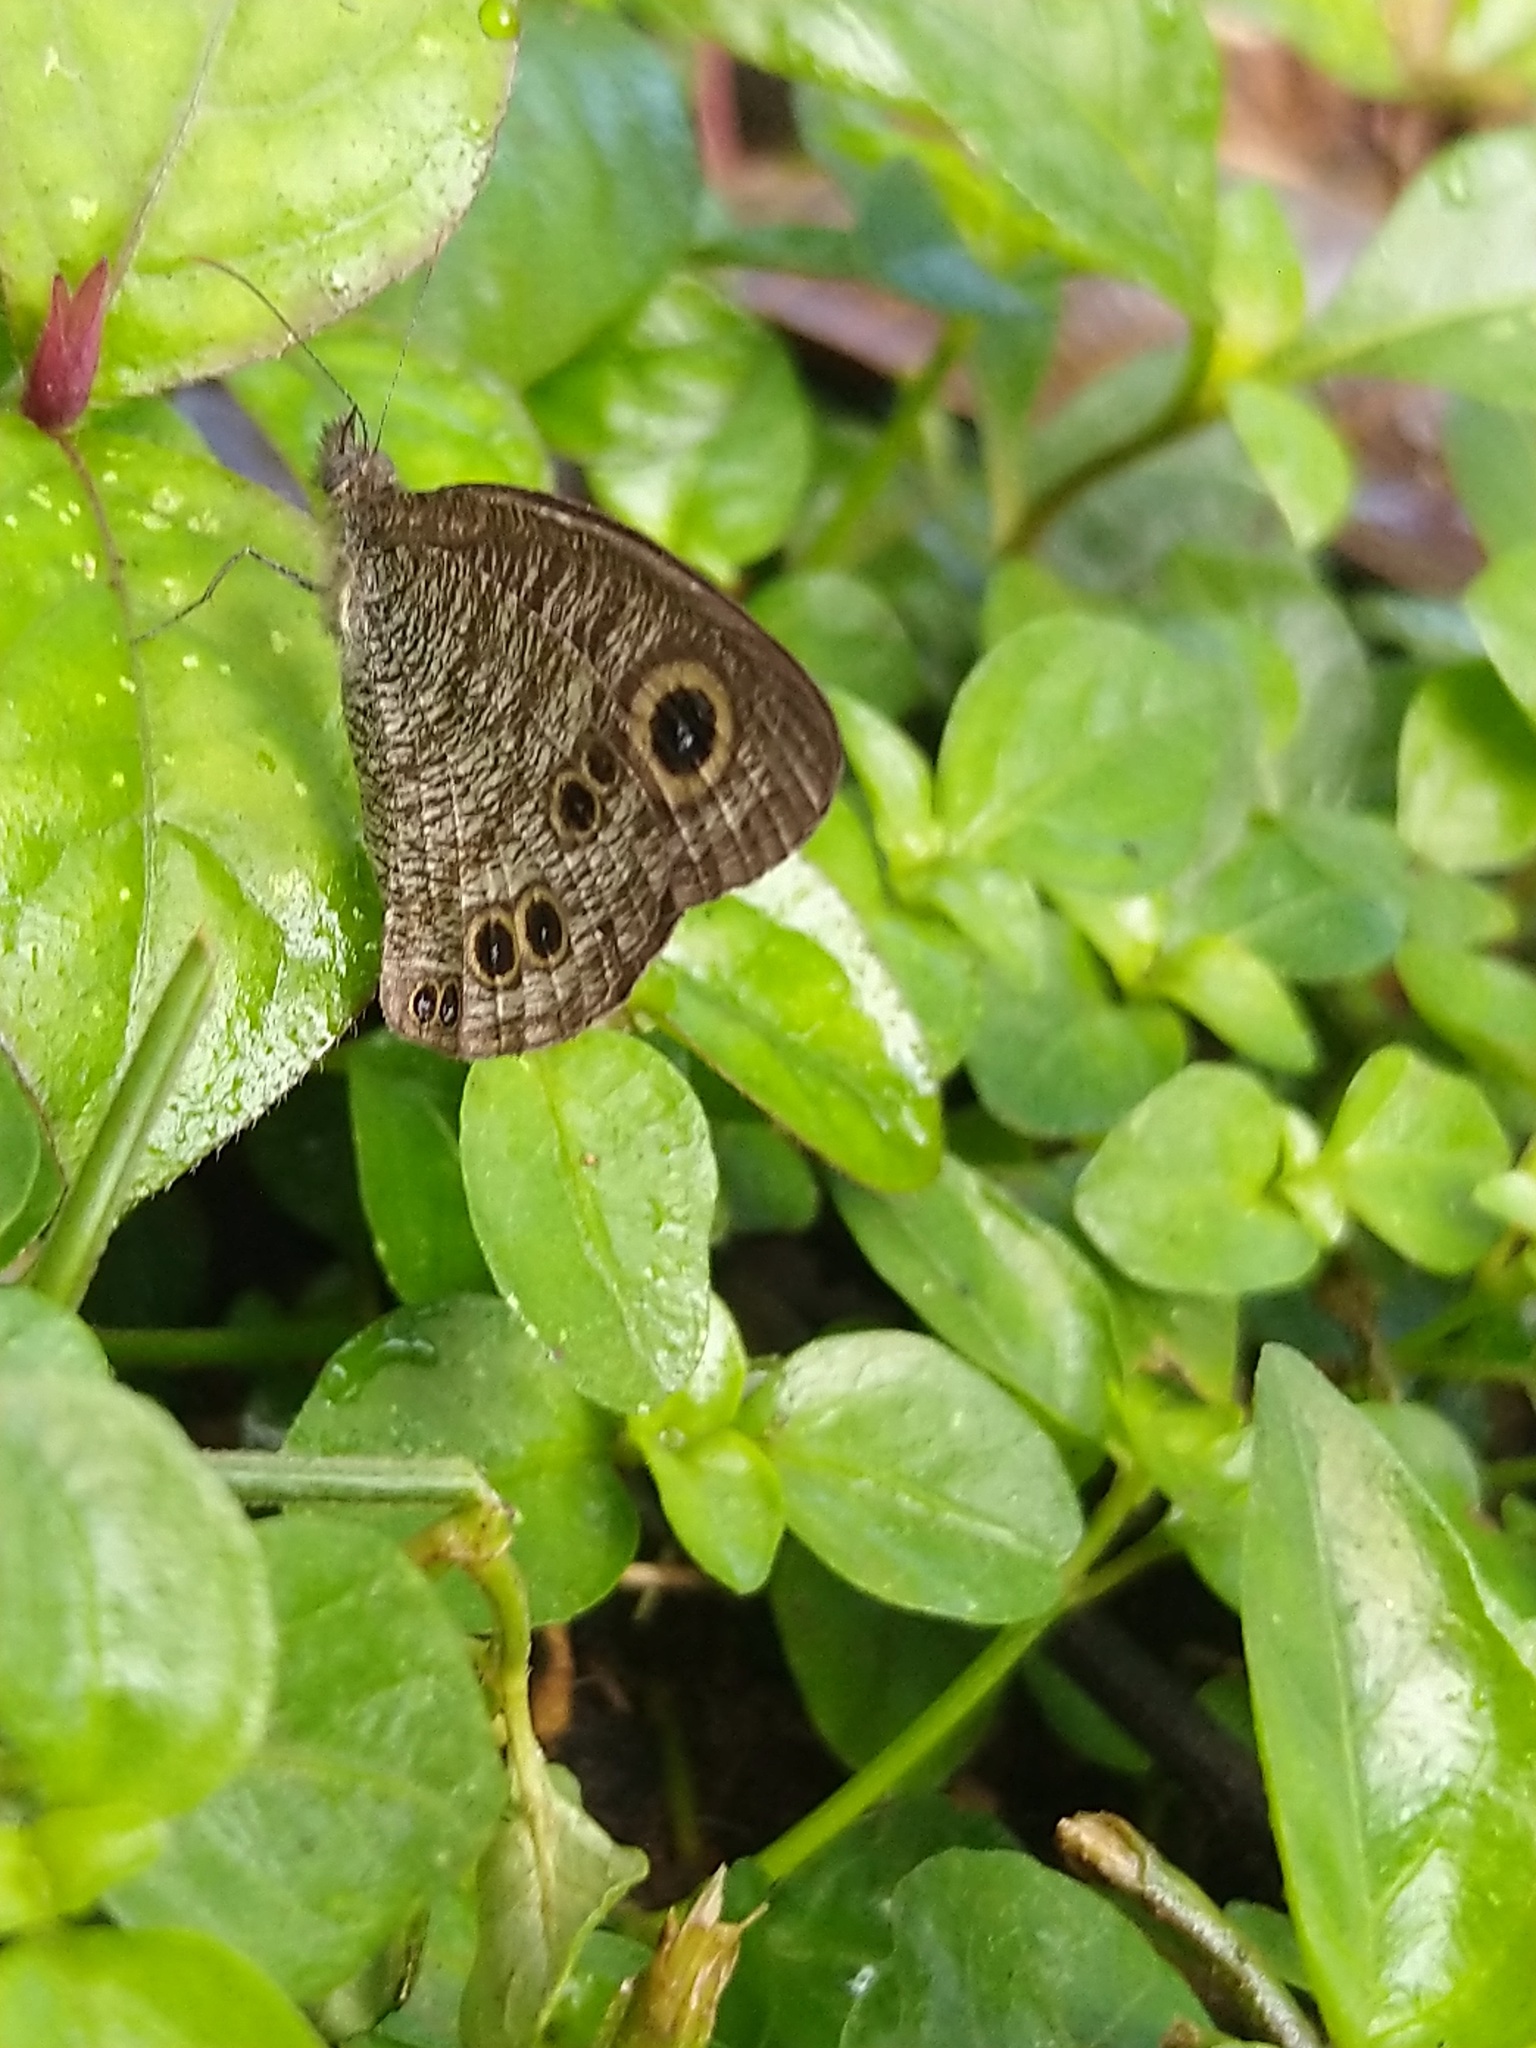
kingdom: Animalia
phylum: Arthropoda
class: Insecta
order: Lepidoptera
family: Nymphalidae
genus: Ypthima
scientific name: Ypthima baldus
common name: Common five-ring
